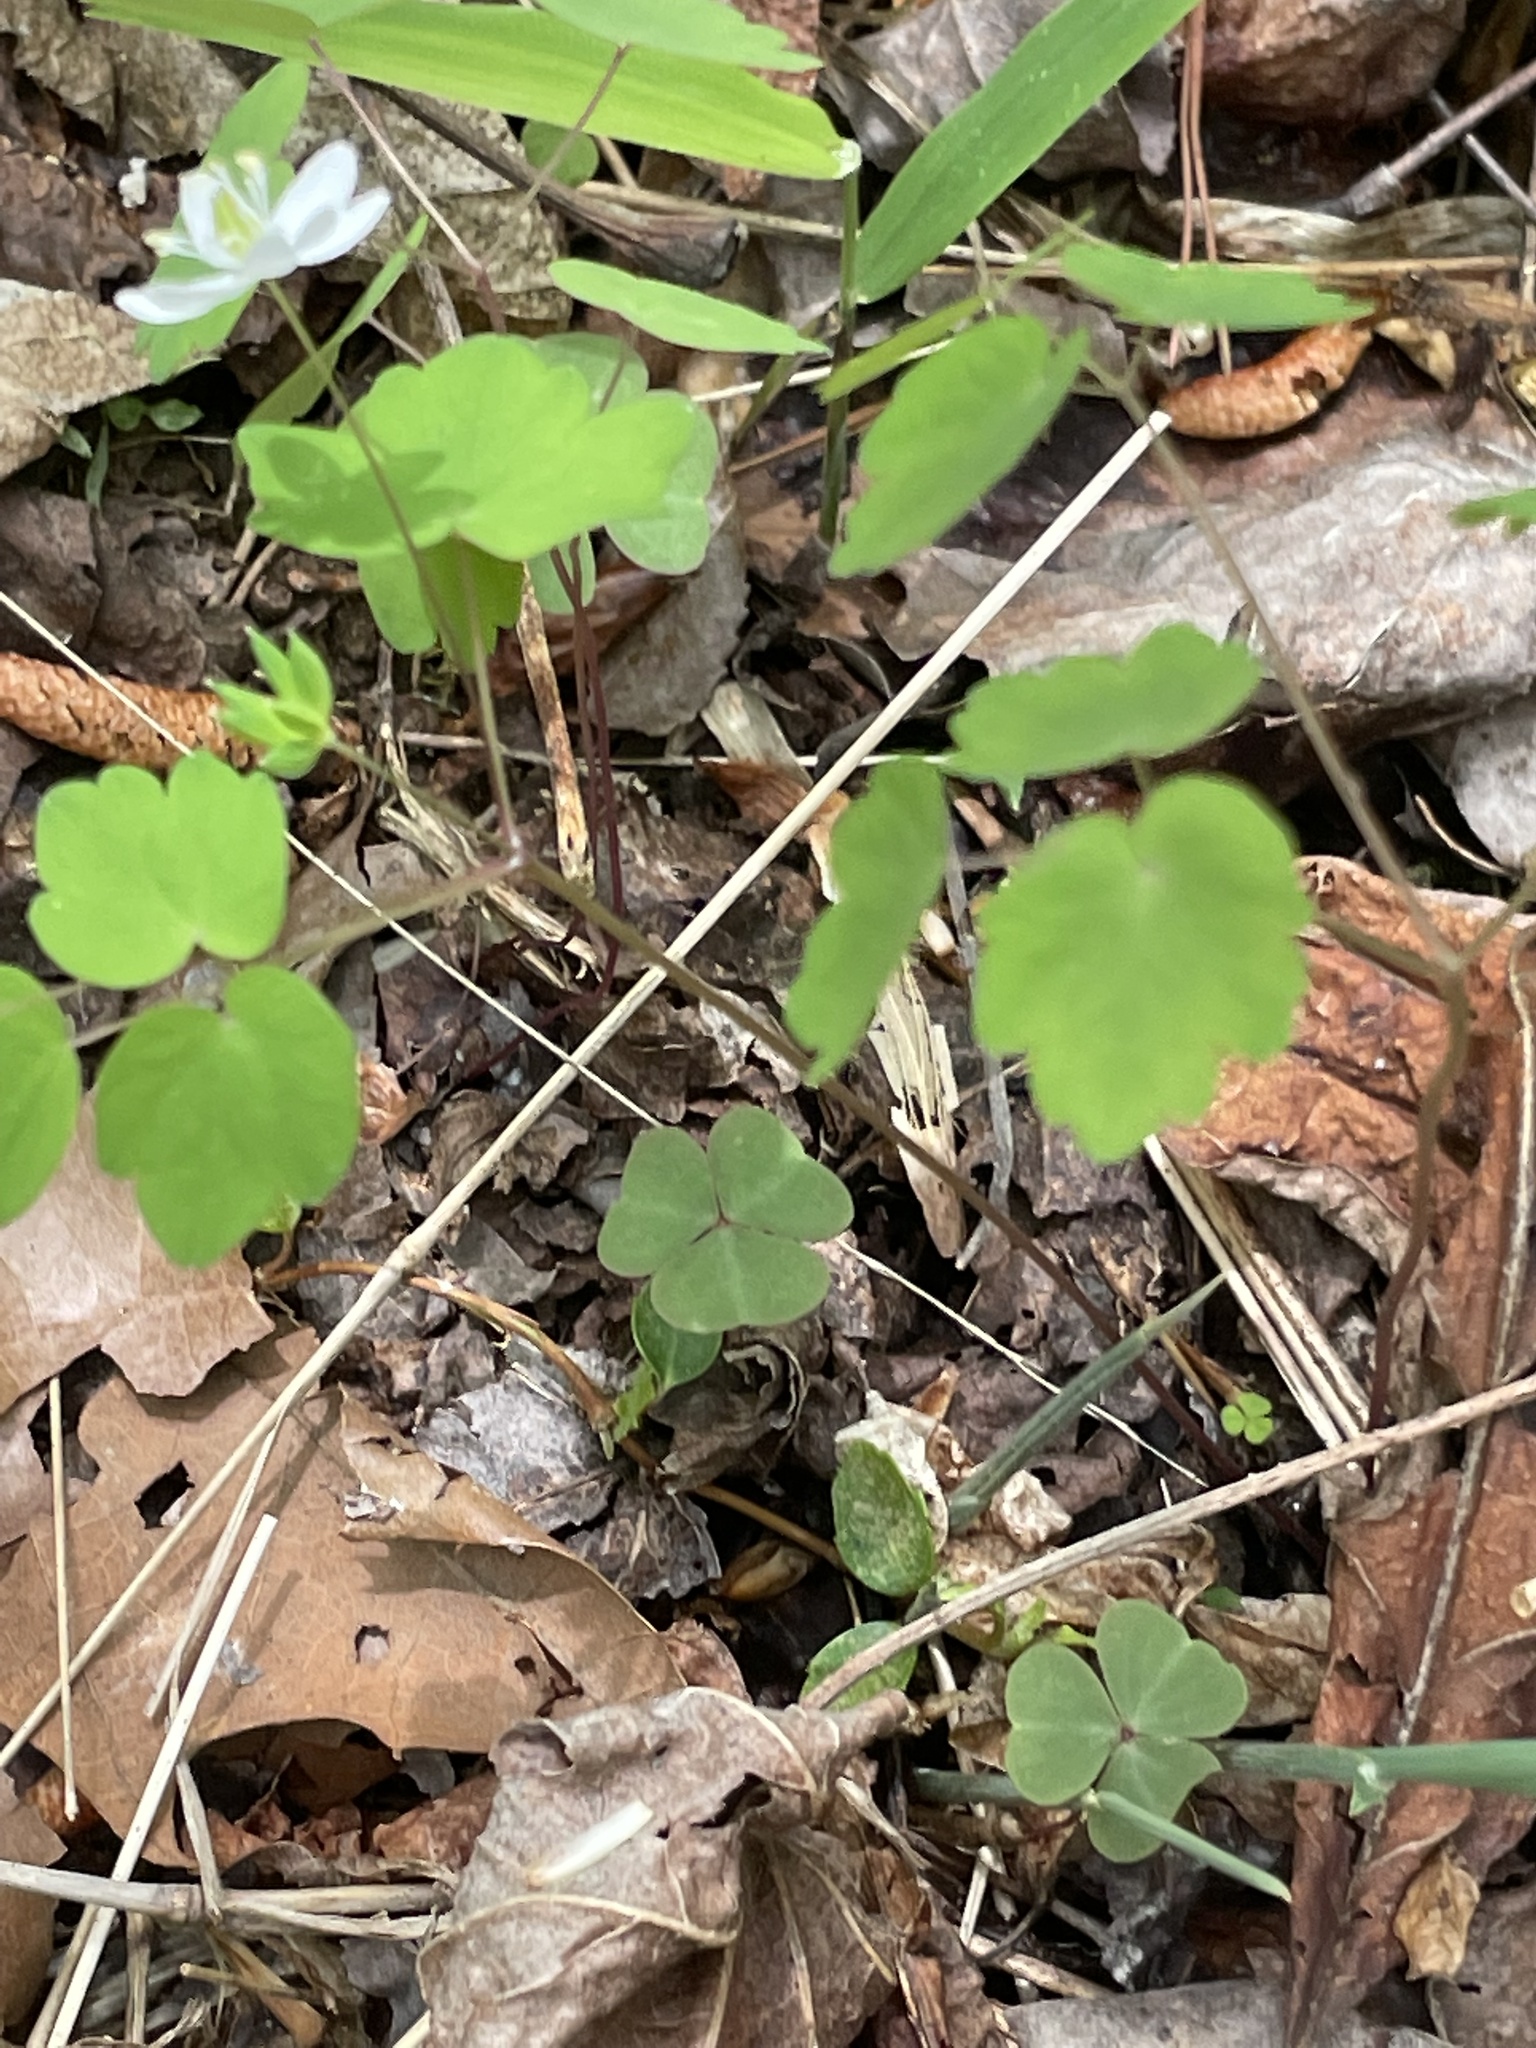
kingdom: Plantae
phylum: Tracheophyta
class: Magnoliopsida
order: Ranunculales
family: Ranunculaceae
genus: Thalictrum
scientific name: Thalictrum thalictroides
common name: Rue-anemone
